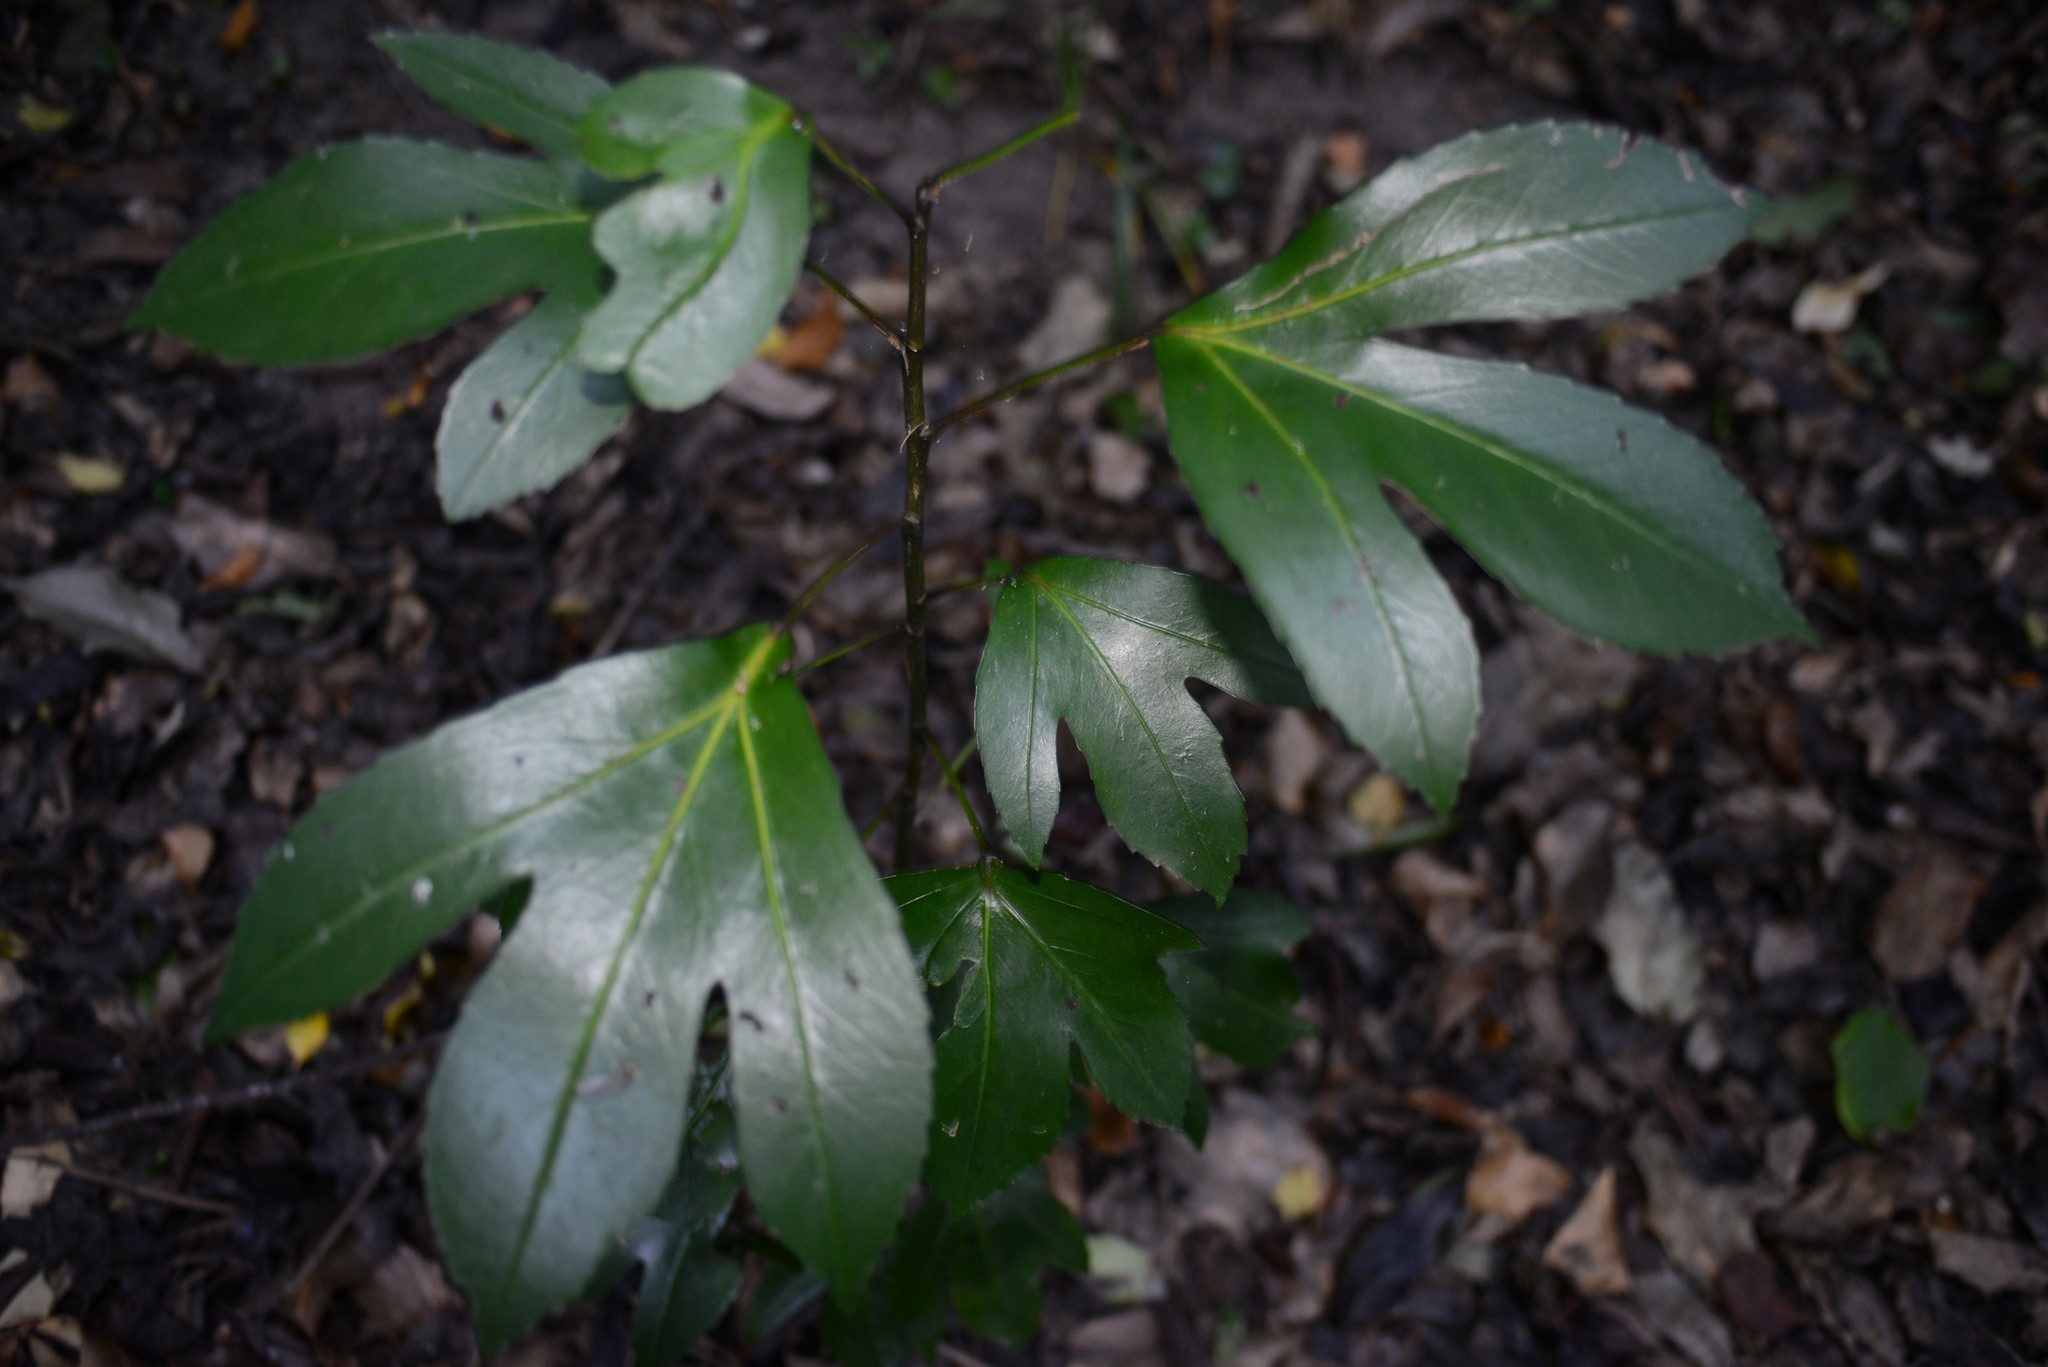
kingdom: Plantae
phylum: Tracheophyta
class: Magnoliopsida
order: Apiales
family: Araliaceae
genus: Pseudopanax
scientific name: Pseudopanax
